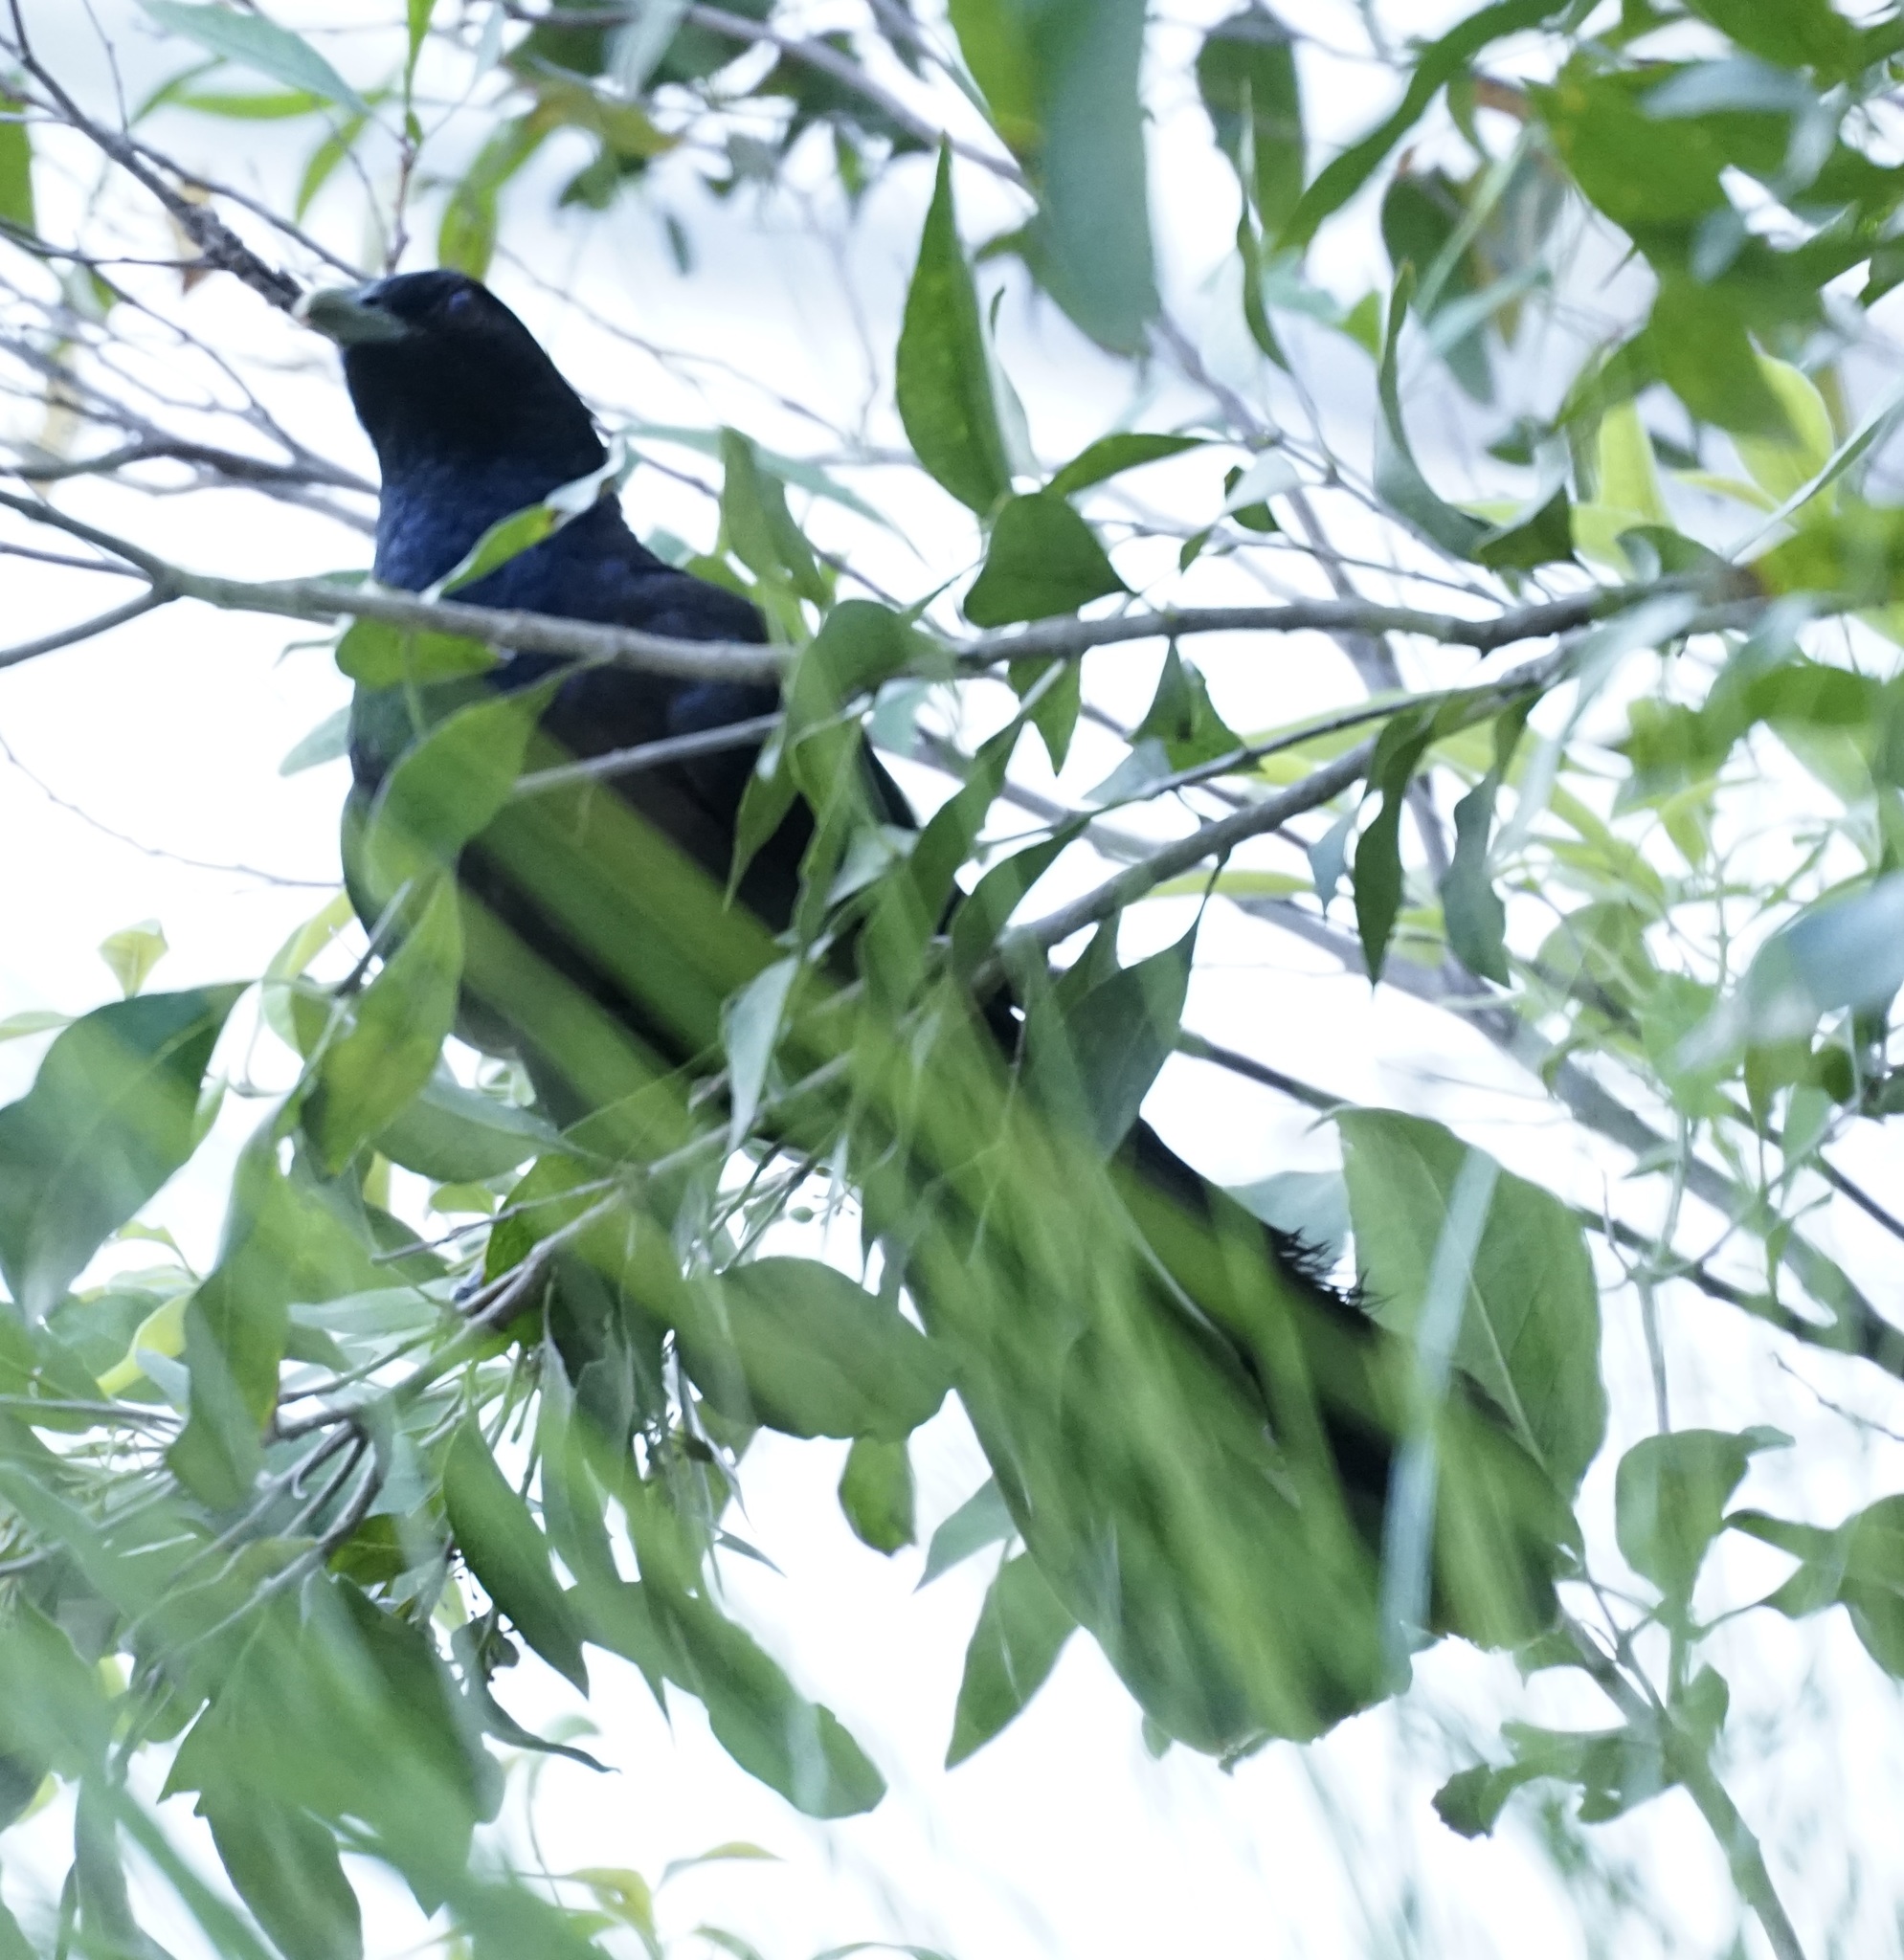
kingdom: Animalia
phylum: Chordata
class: Aves
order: Cuculiformes
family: Cuculidae
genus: Eudynamys
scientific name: Eudynamys orientalis
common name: Pacific koel
